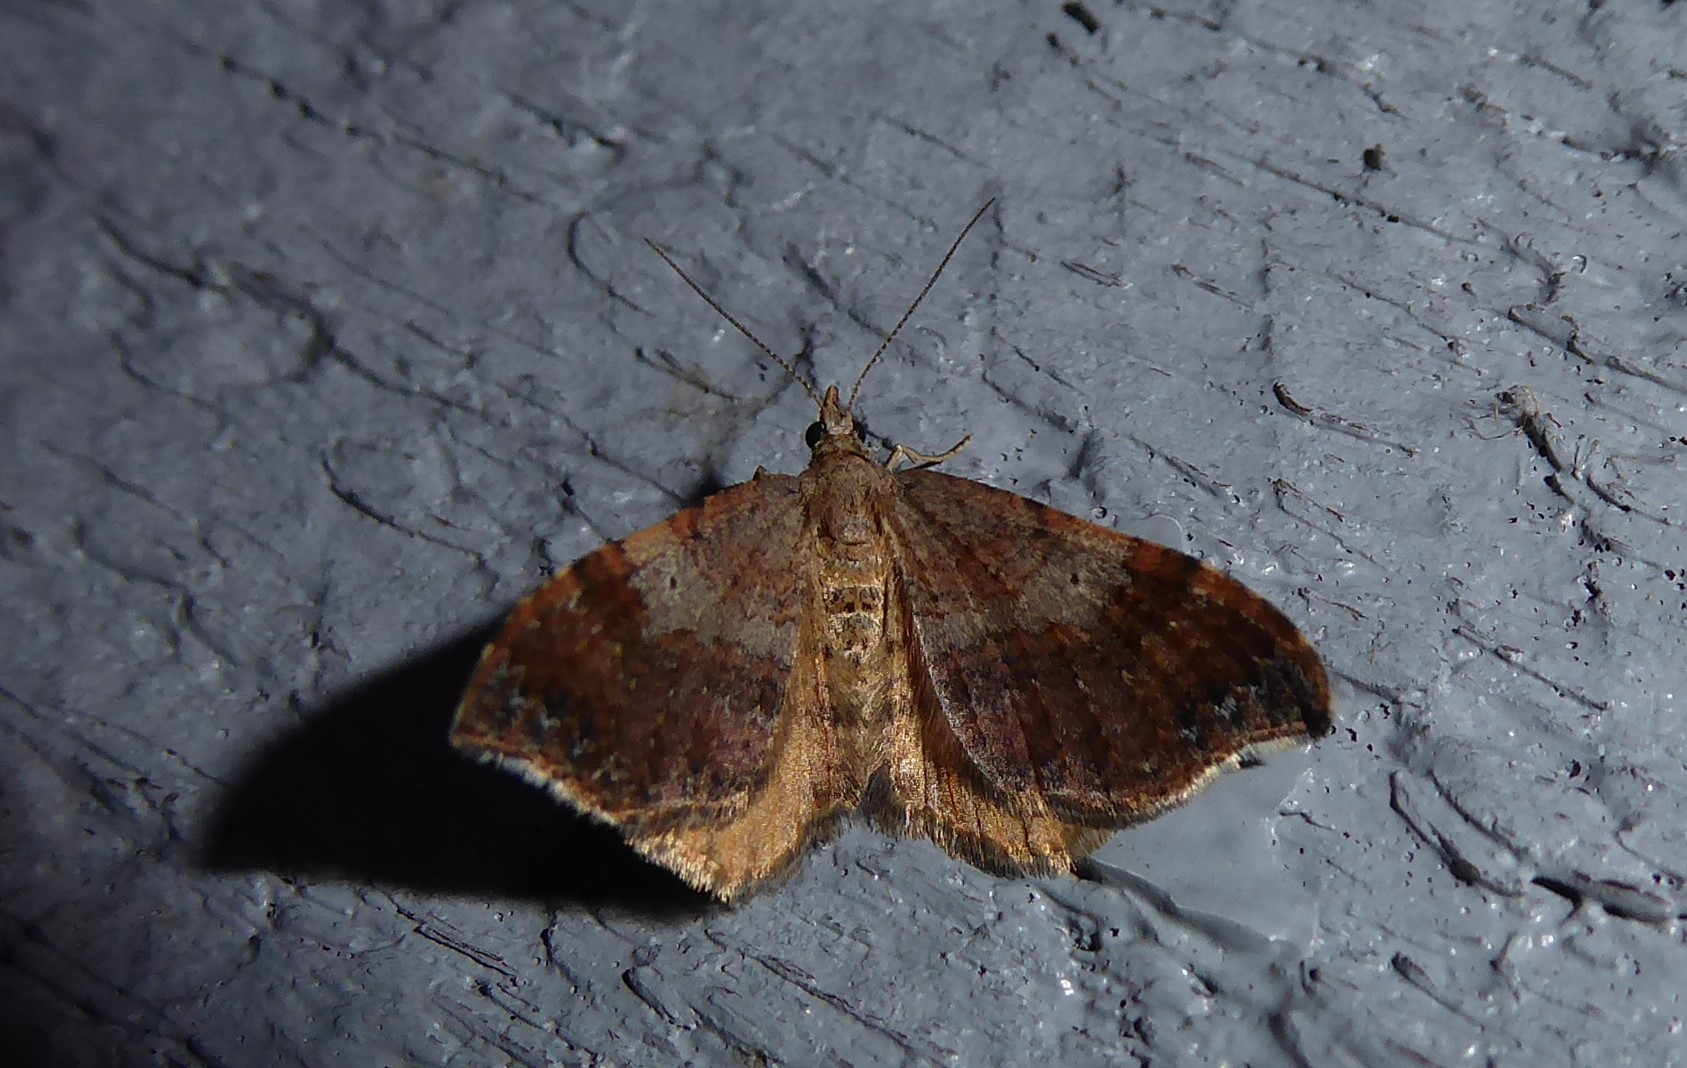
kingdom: Animalia
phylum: Arthropoda
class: Insecta
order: Lepidoptera
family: Geometridae
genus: Homodotis
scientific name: Homodotis megaspilata
